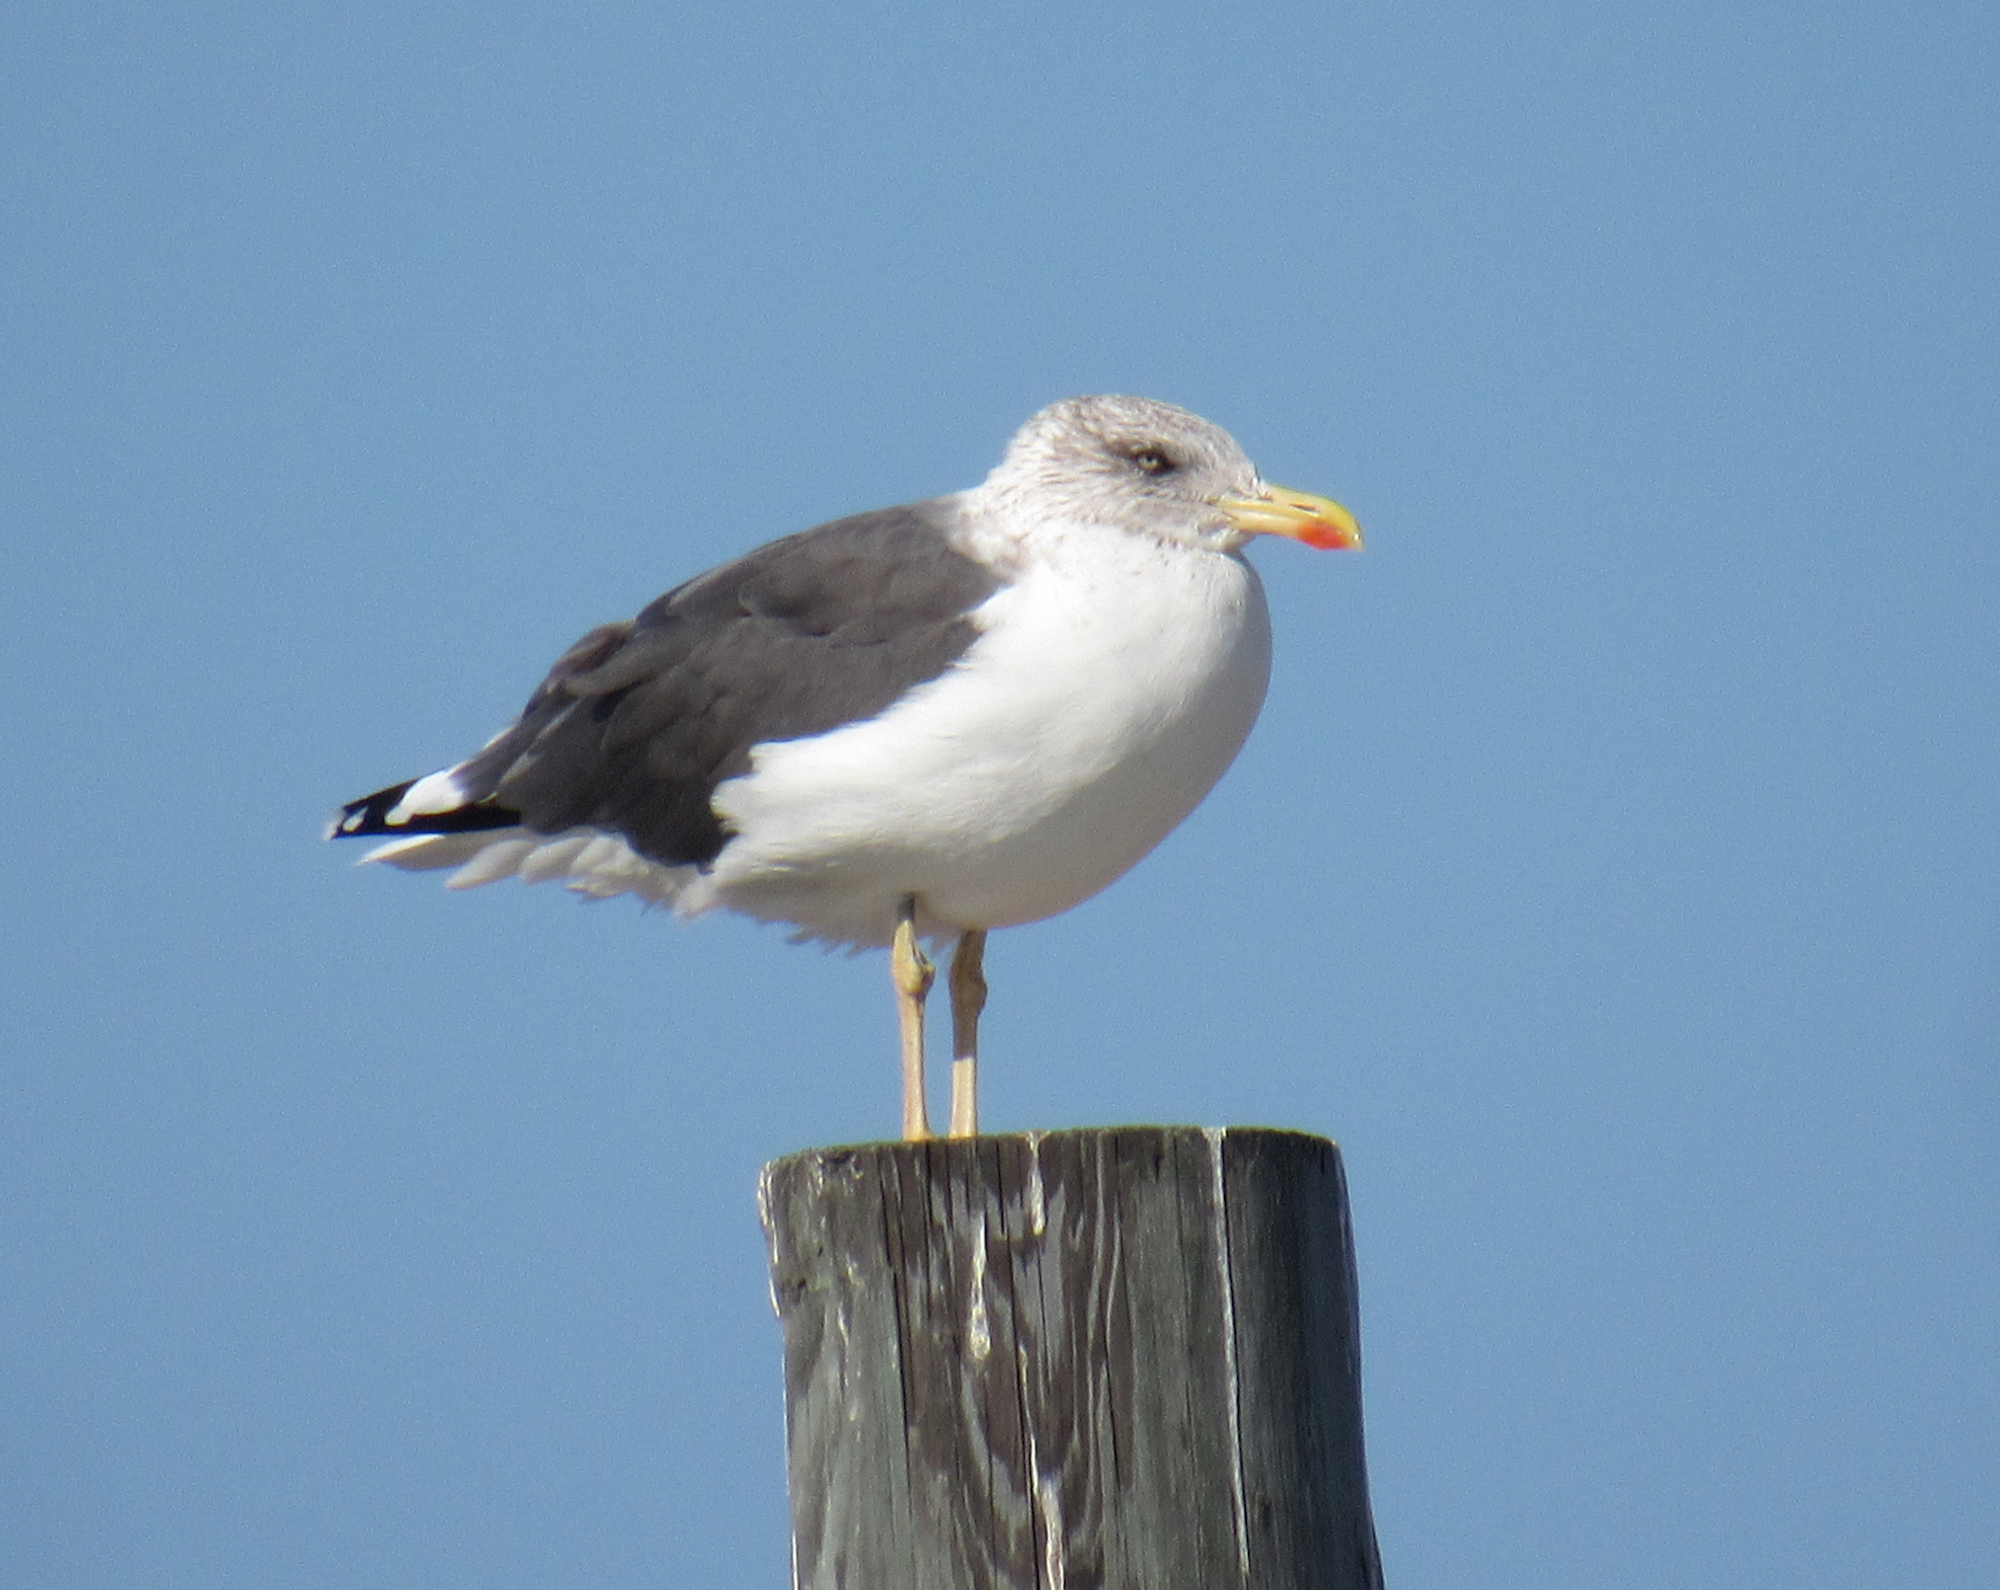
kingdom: Animalia
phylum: Chordata
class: Aves
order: Charadriiformes
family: Laridae
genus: Larus
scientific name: Larus fuscus
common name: Lesser black-backed gull
